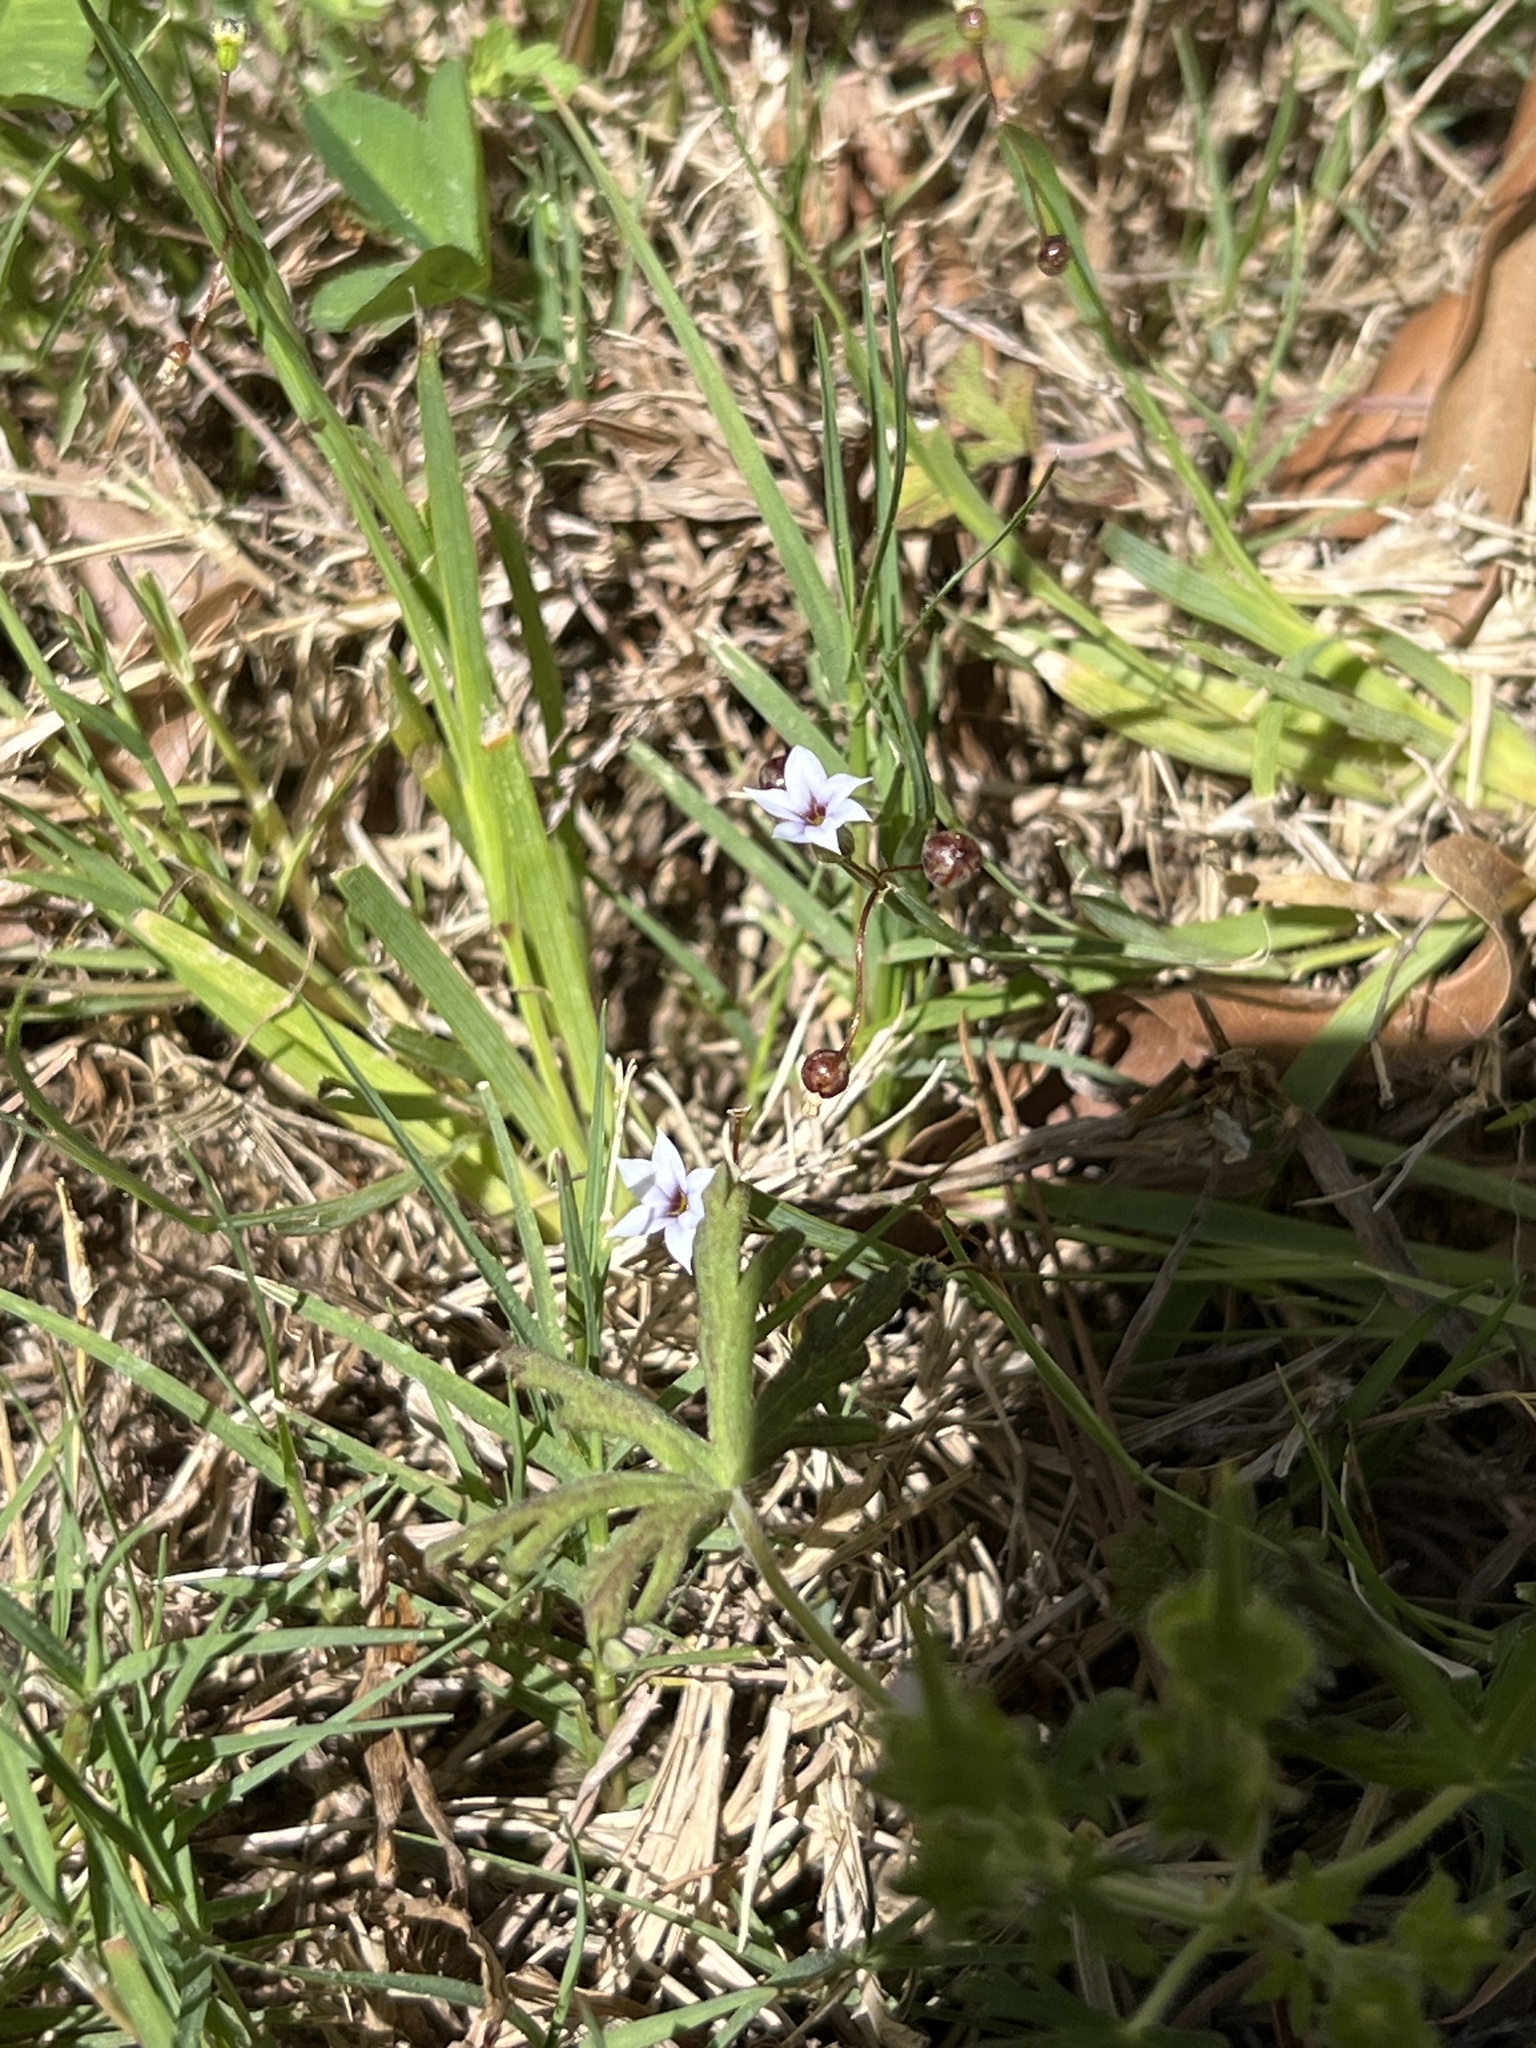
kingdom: Plantae
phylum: Tracheophyta
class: Liliopsida
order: Asparagales
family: Iridaceae
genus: Sisyrinchium
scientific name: Sisyrinchium micranthum
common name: Bermuda pigroot
